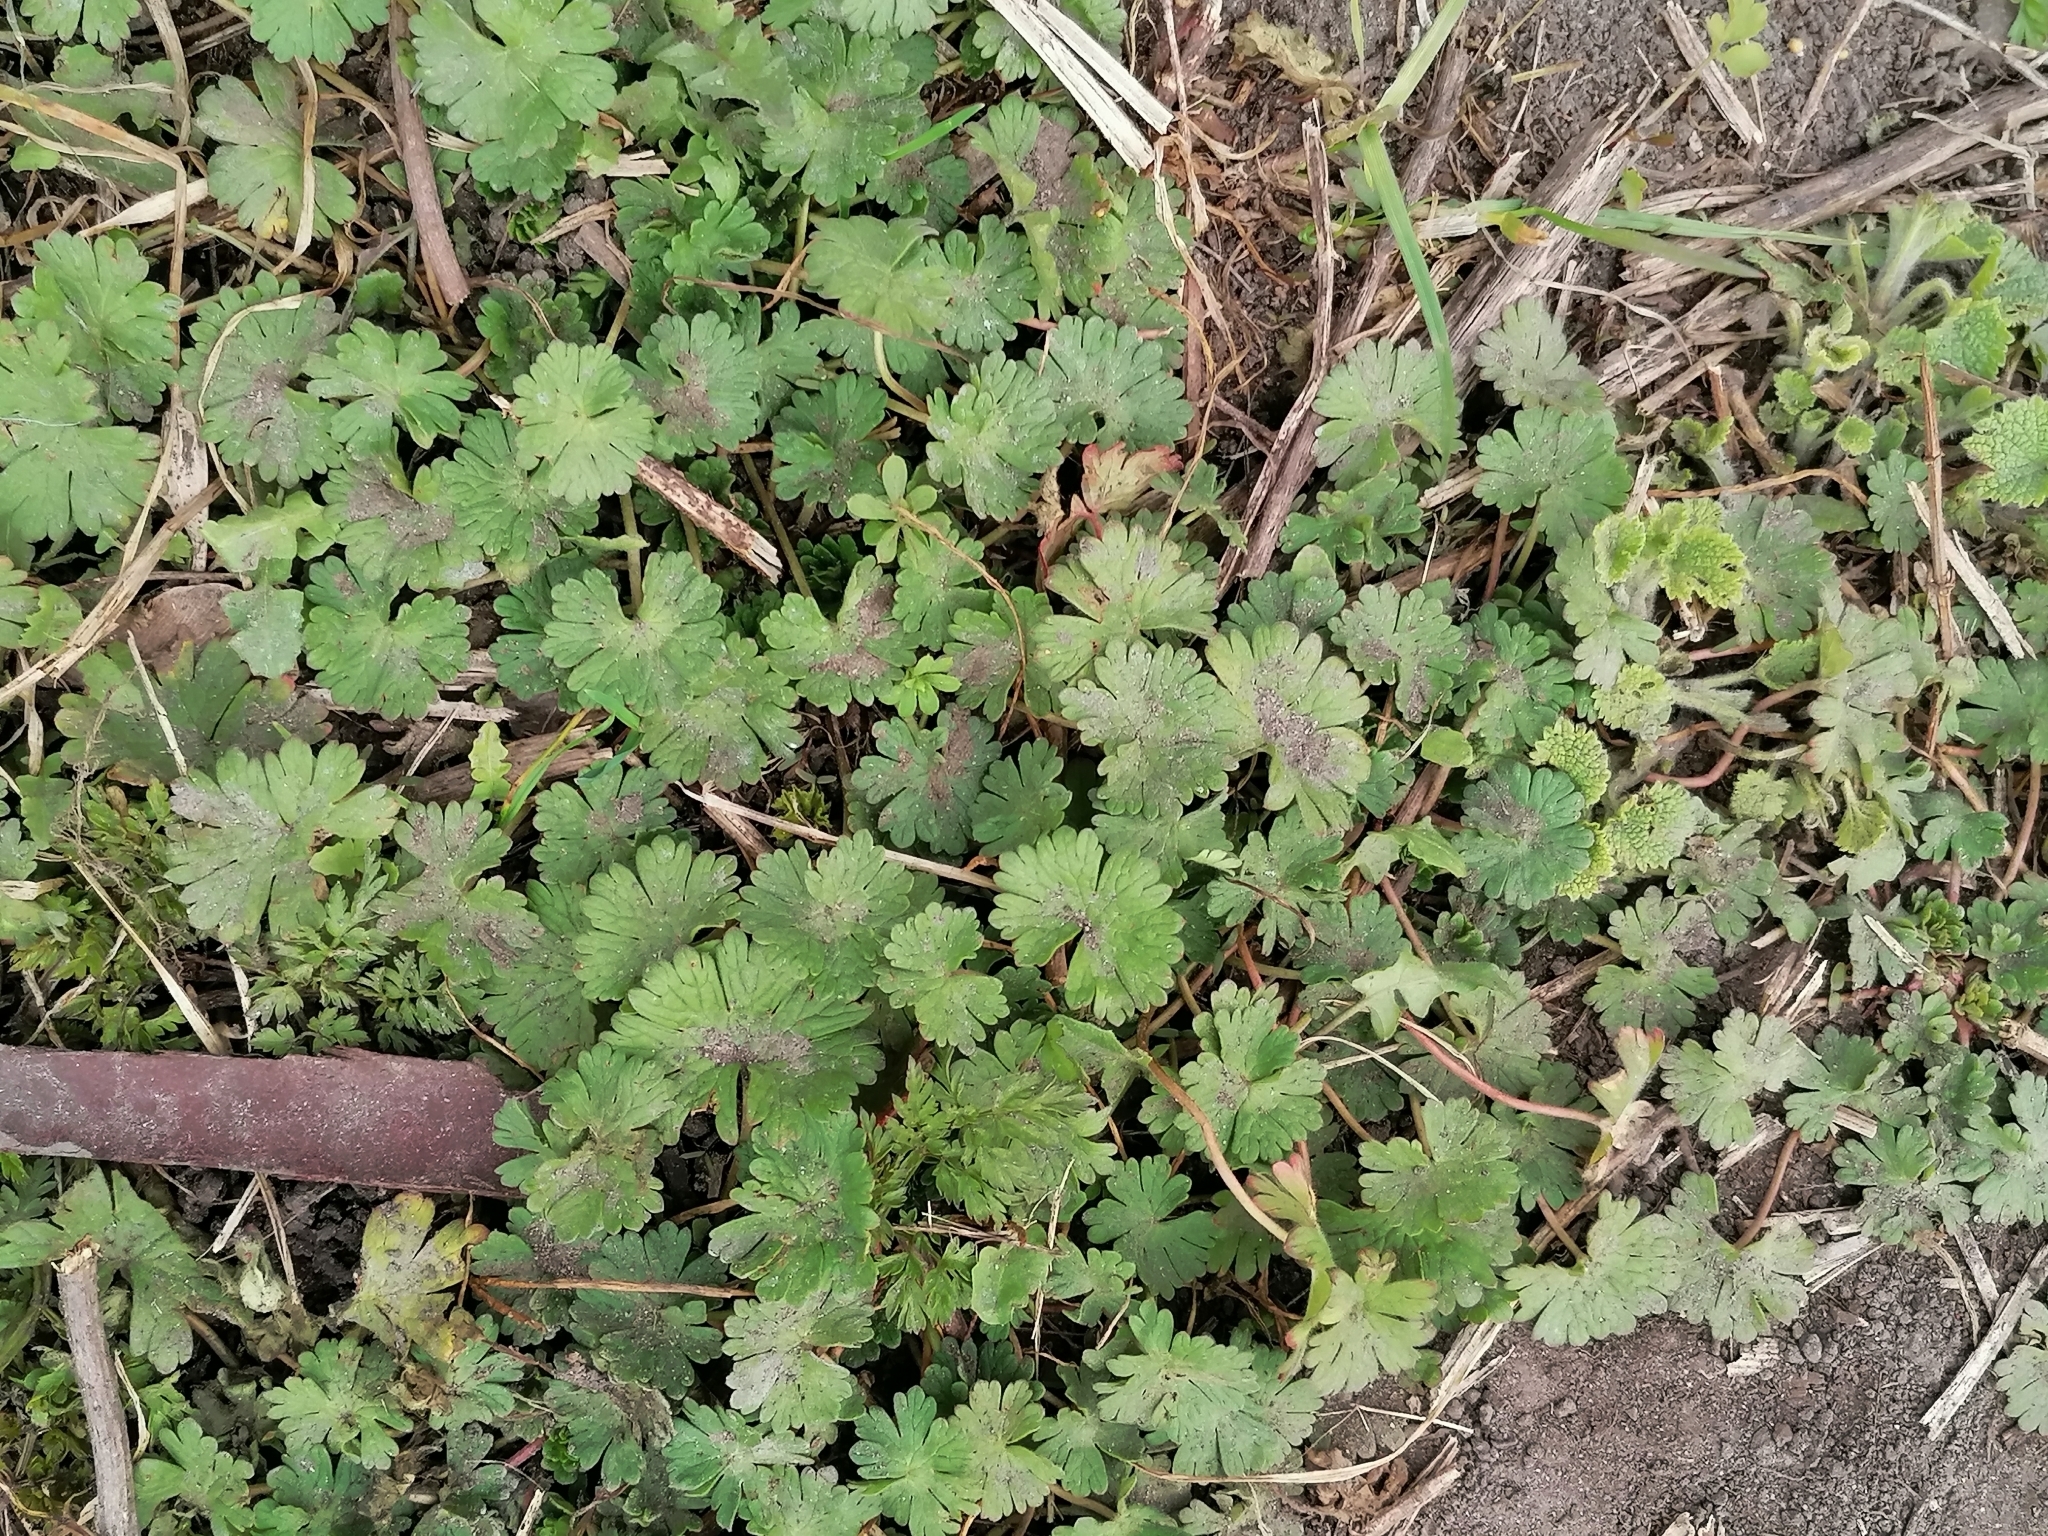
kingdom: Plantae
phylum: Tracheophyta
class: Magnoliopsida
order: Geraniales
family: Geraniaceae
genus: Geranium
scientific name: Geranium pusillum
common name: Small geranium
